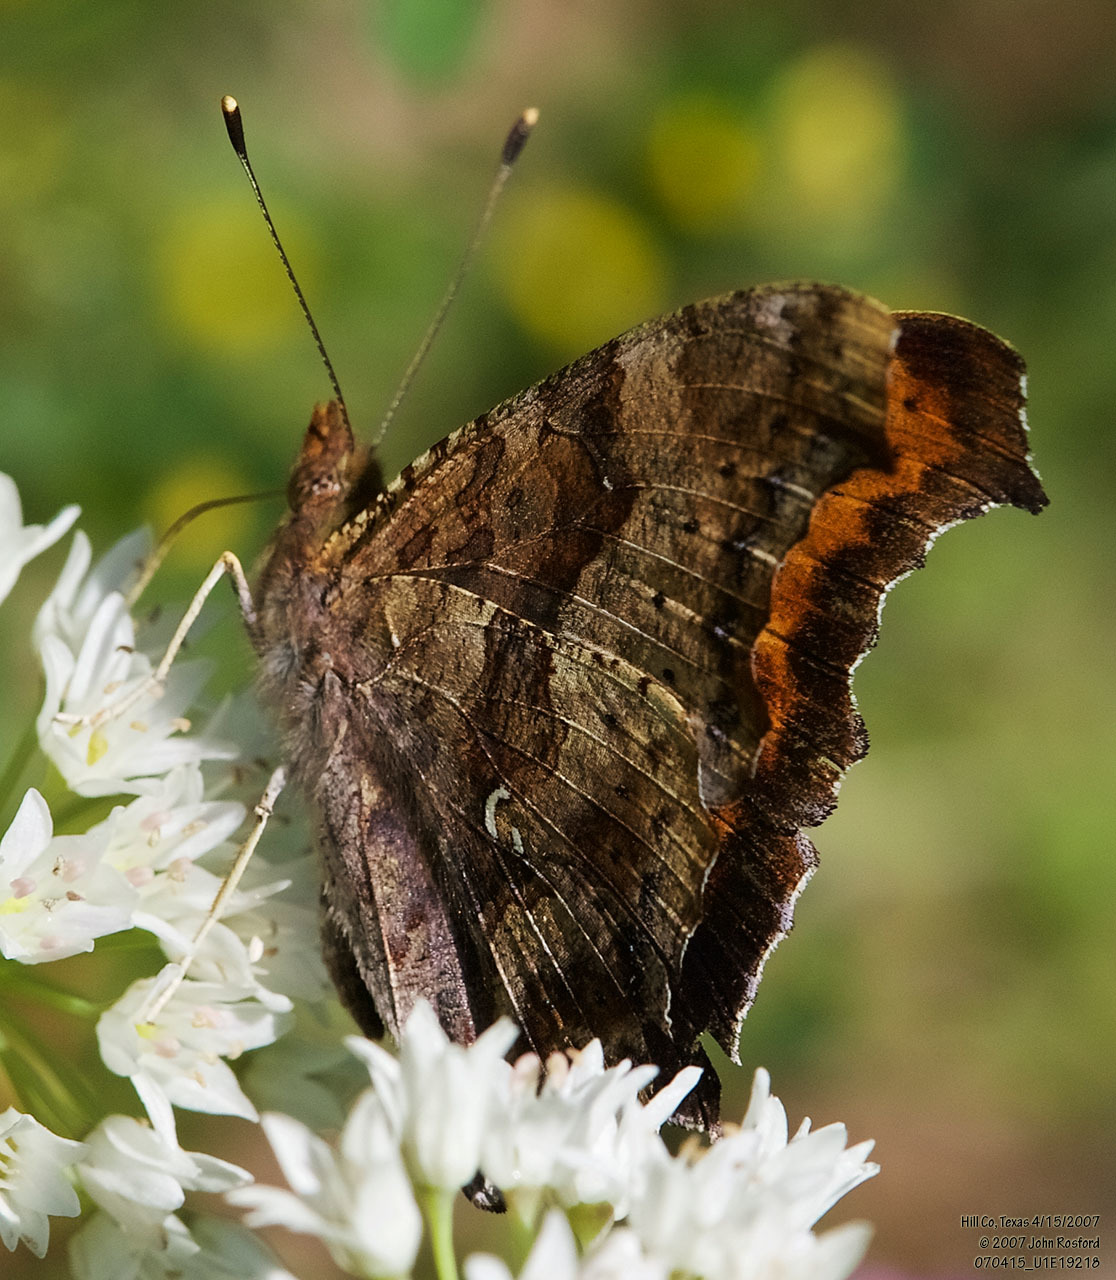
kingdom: Animalia
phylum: Arthropoda
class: Insecta
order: Lepidoptera
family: Nymphalidae
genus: Polygonia
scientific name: Polygonia interrogationis
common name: Question mark
